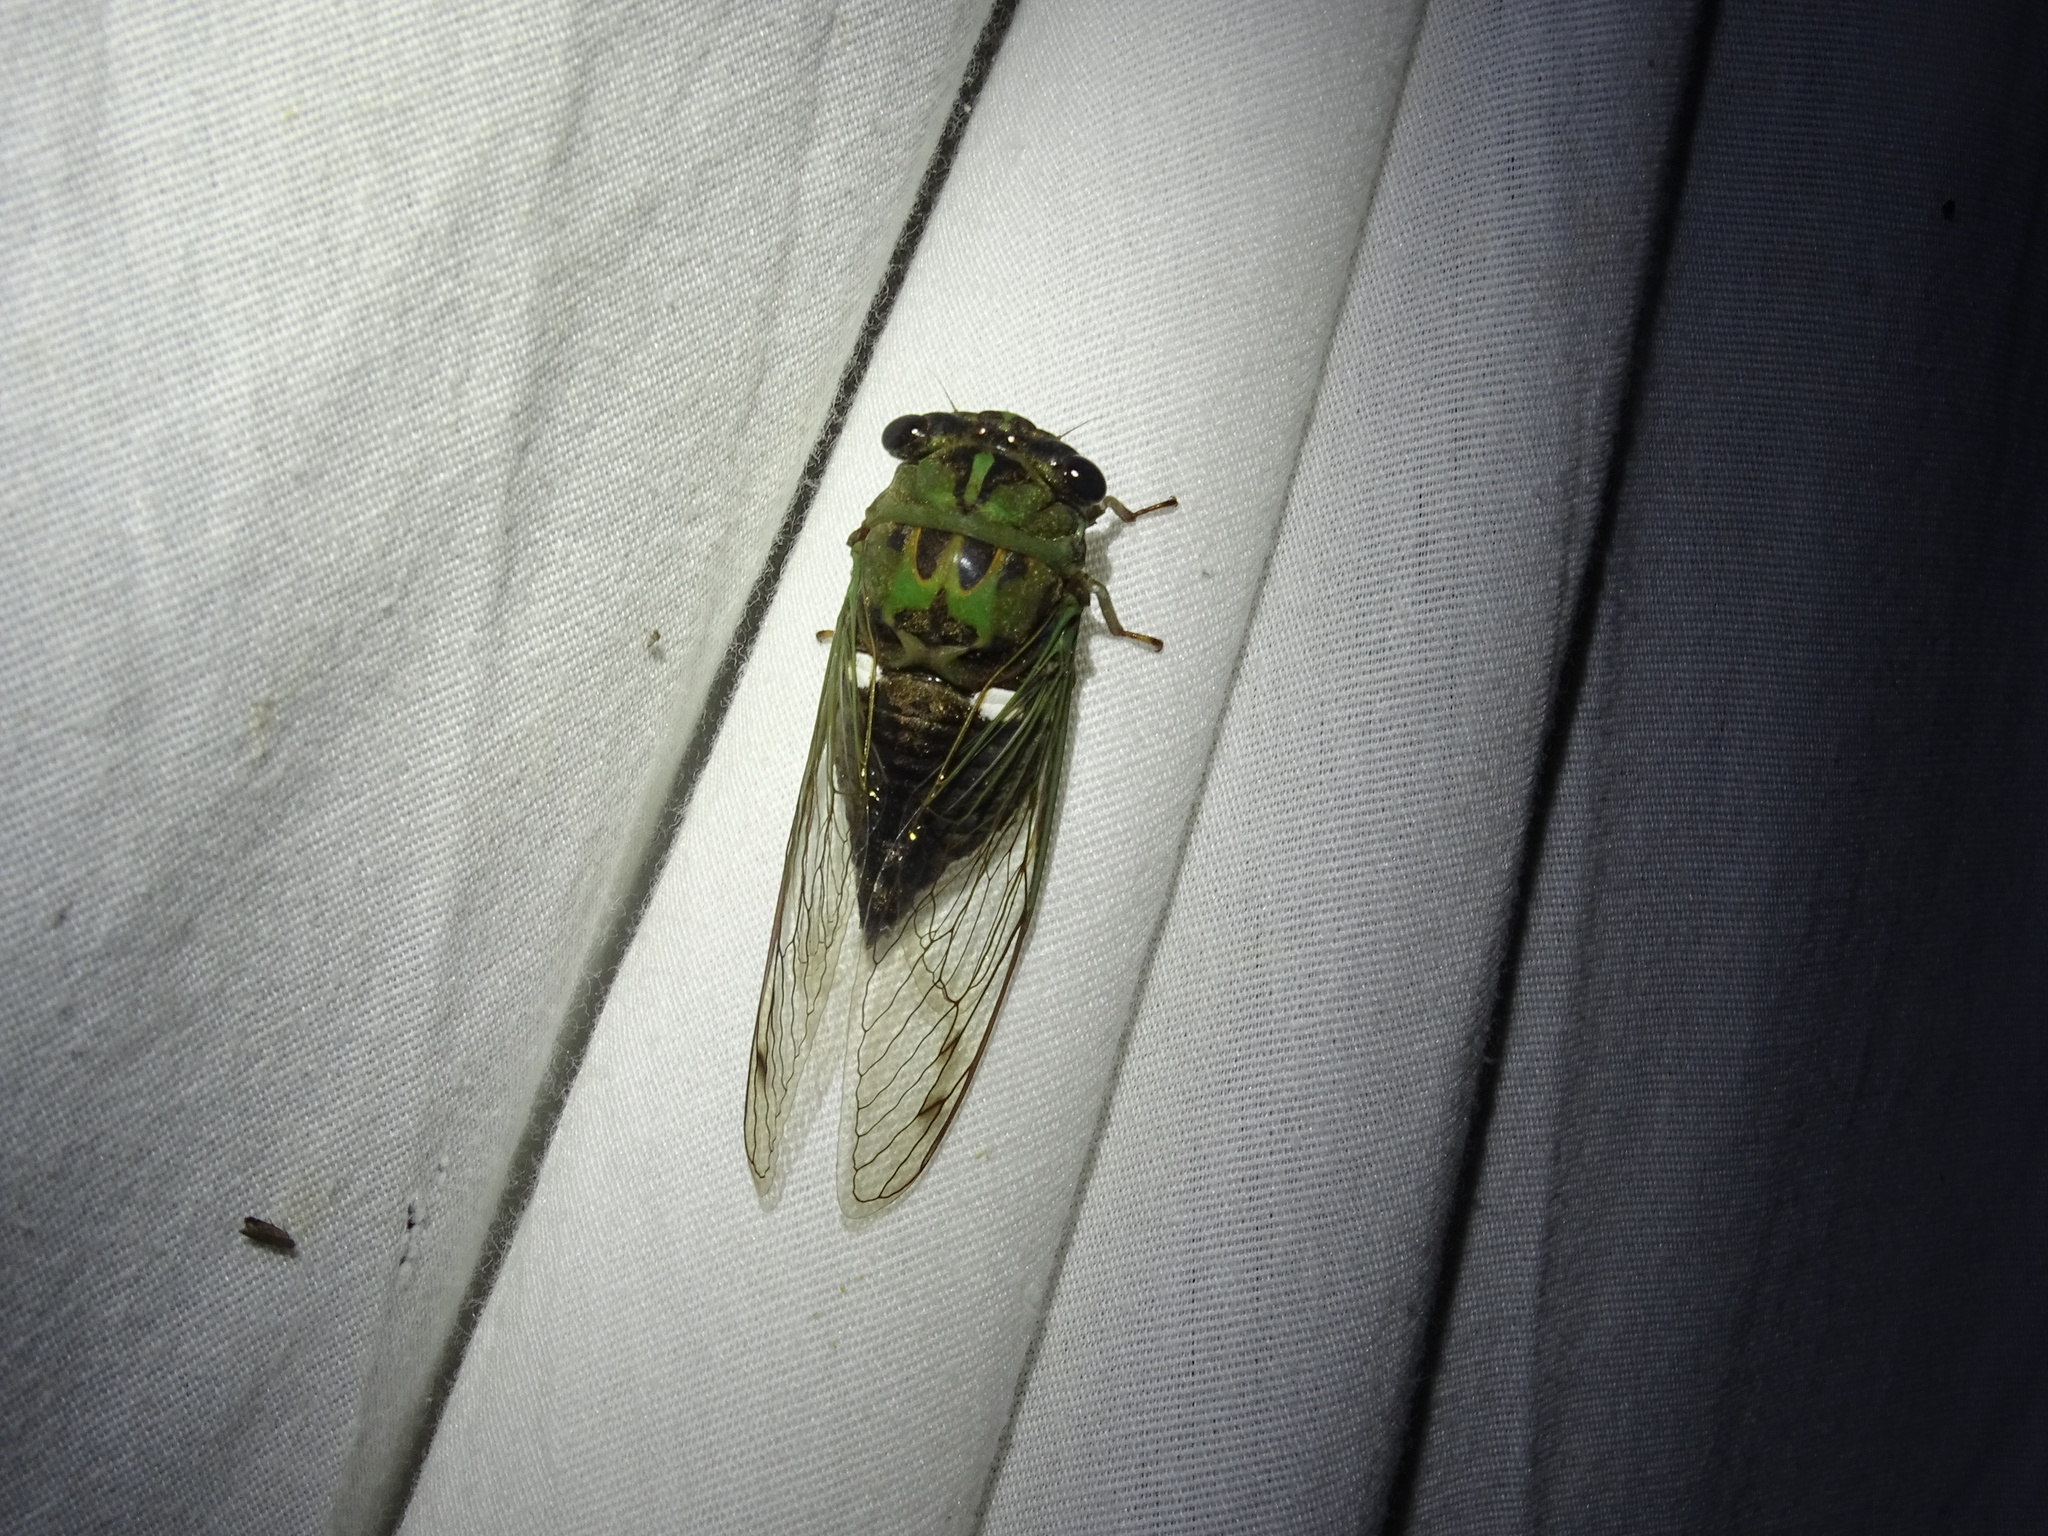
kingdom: Animalia
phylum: Arthropoda
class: Insecta
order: Hemiptera
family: Cicadidae
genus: Neotibicen
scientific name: Neotibicen pruinosus
